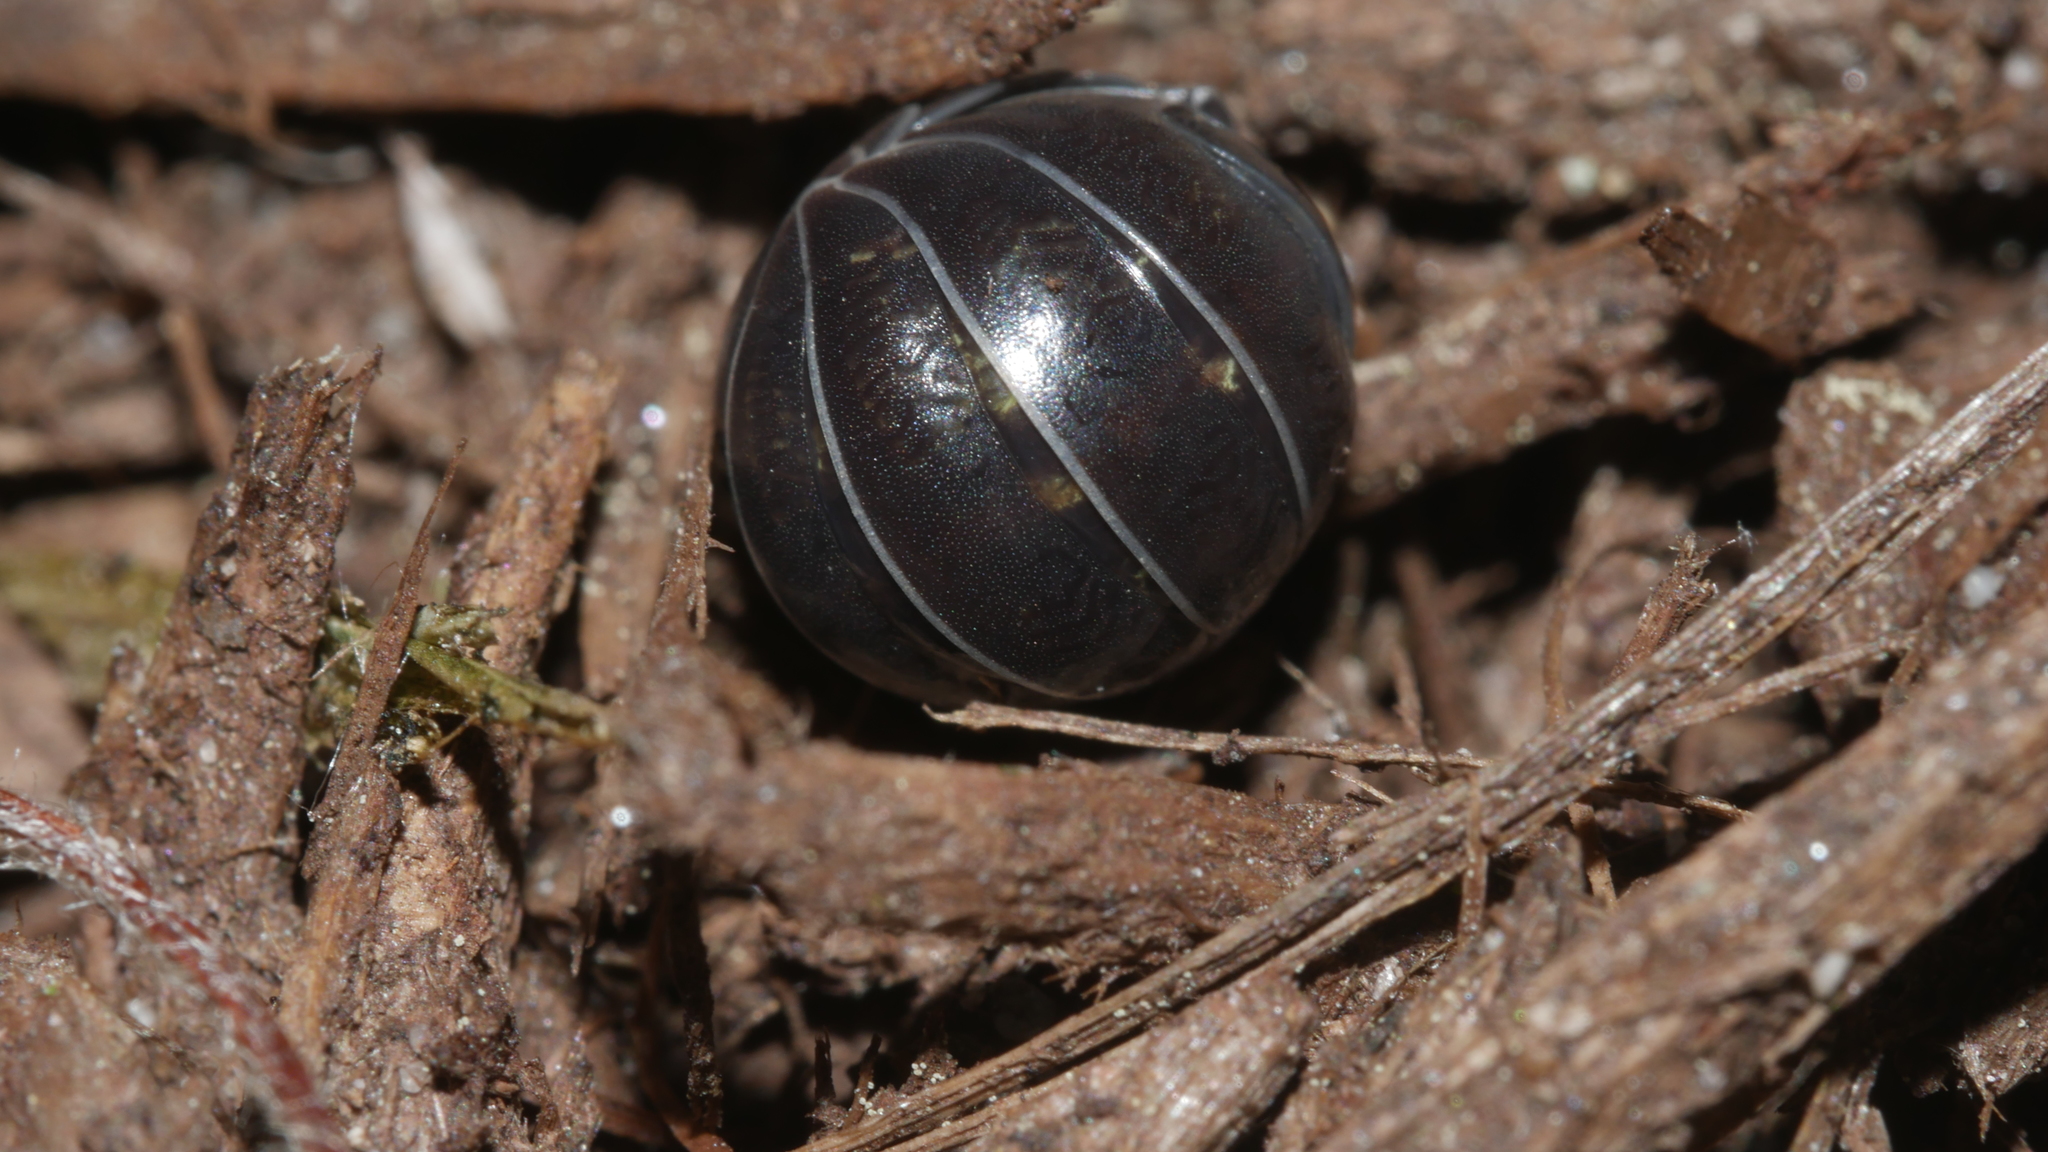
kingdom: Animalia
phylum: Arthropoda
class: Malacostraca
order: Isopoda
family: Armadillidiidae
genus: Armadillidium
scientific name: Armadillidium vulgare
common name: Common pill woodlouse
